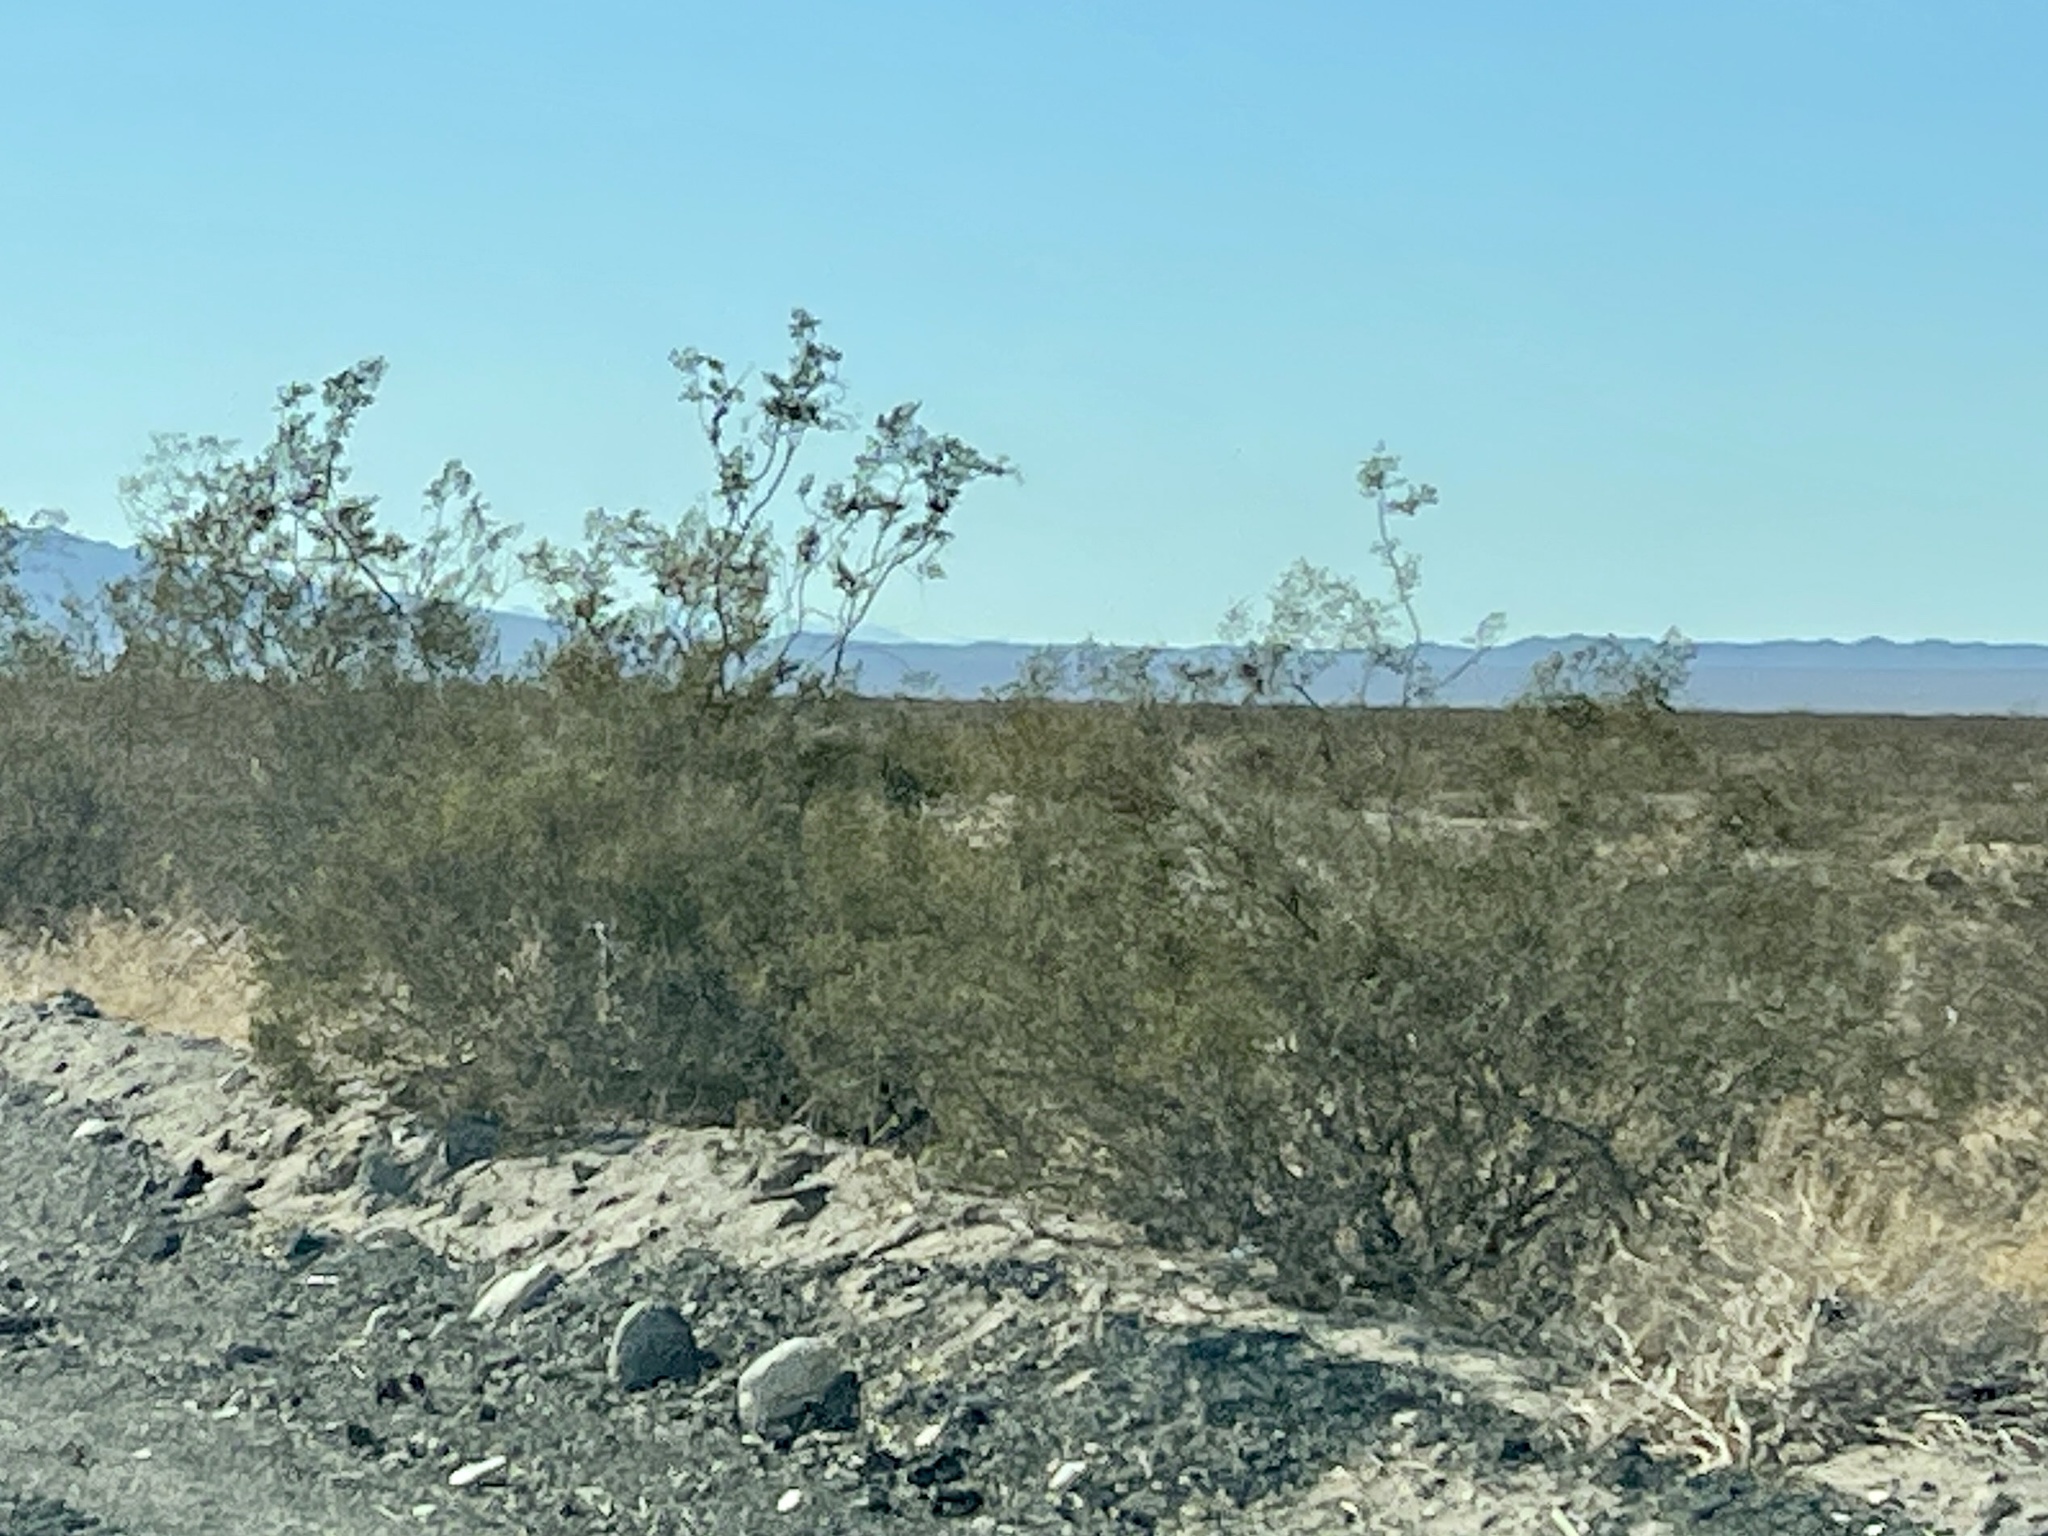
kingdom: Plantae
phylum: Tracheophyta
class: Magnoliopsida
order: Zygophyllales
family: Zygophyllaceae
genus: Larrea
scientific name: Larrea tridentata
